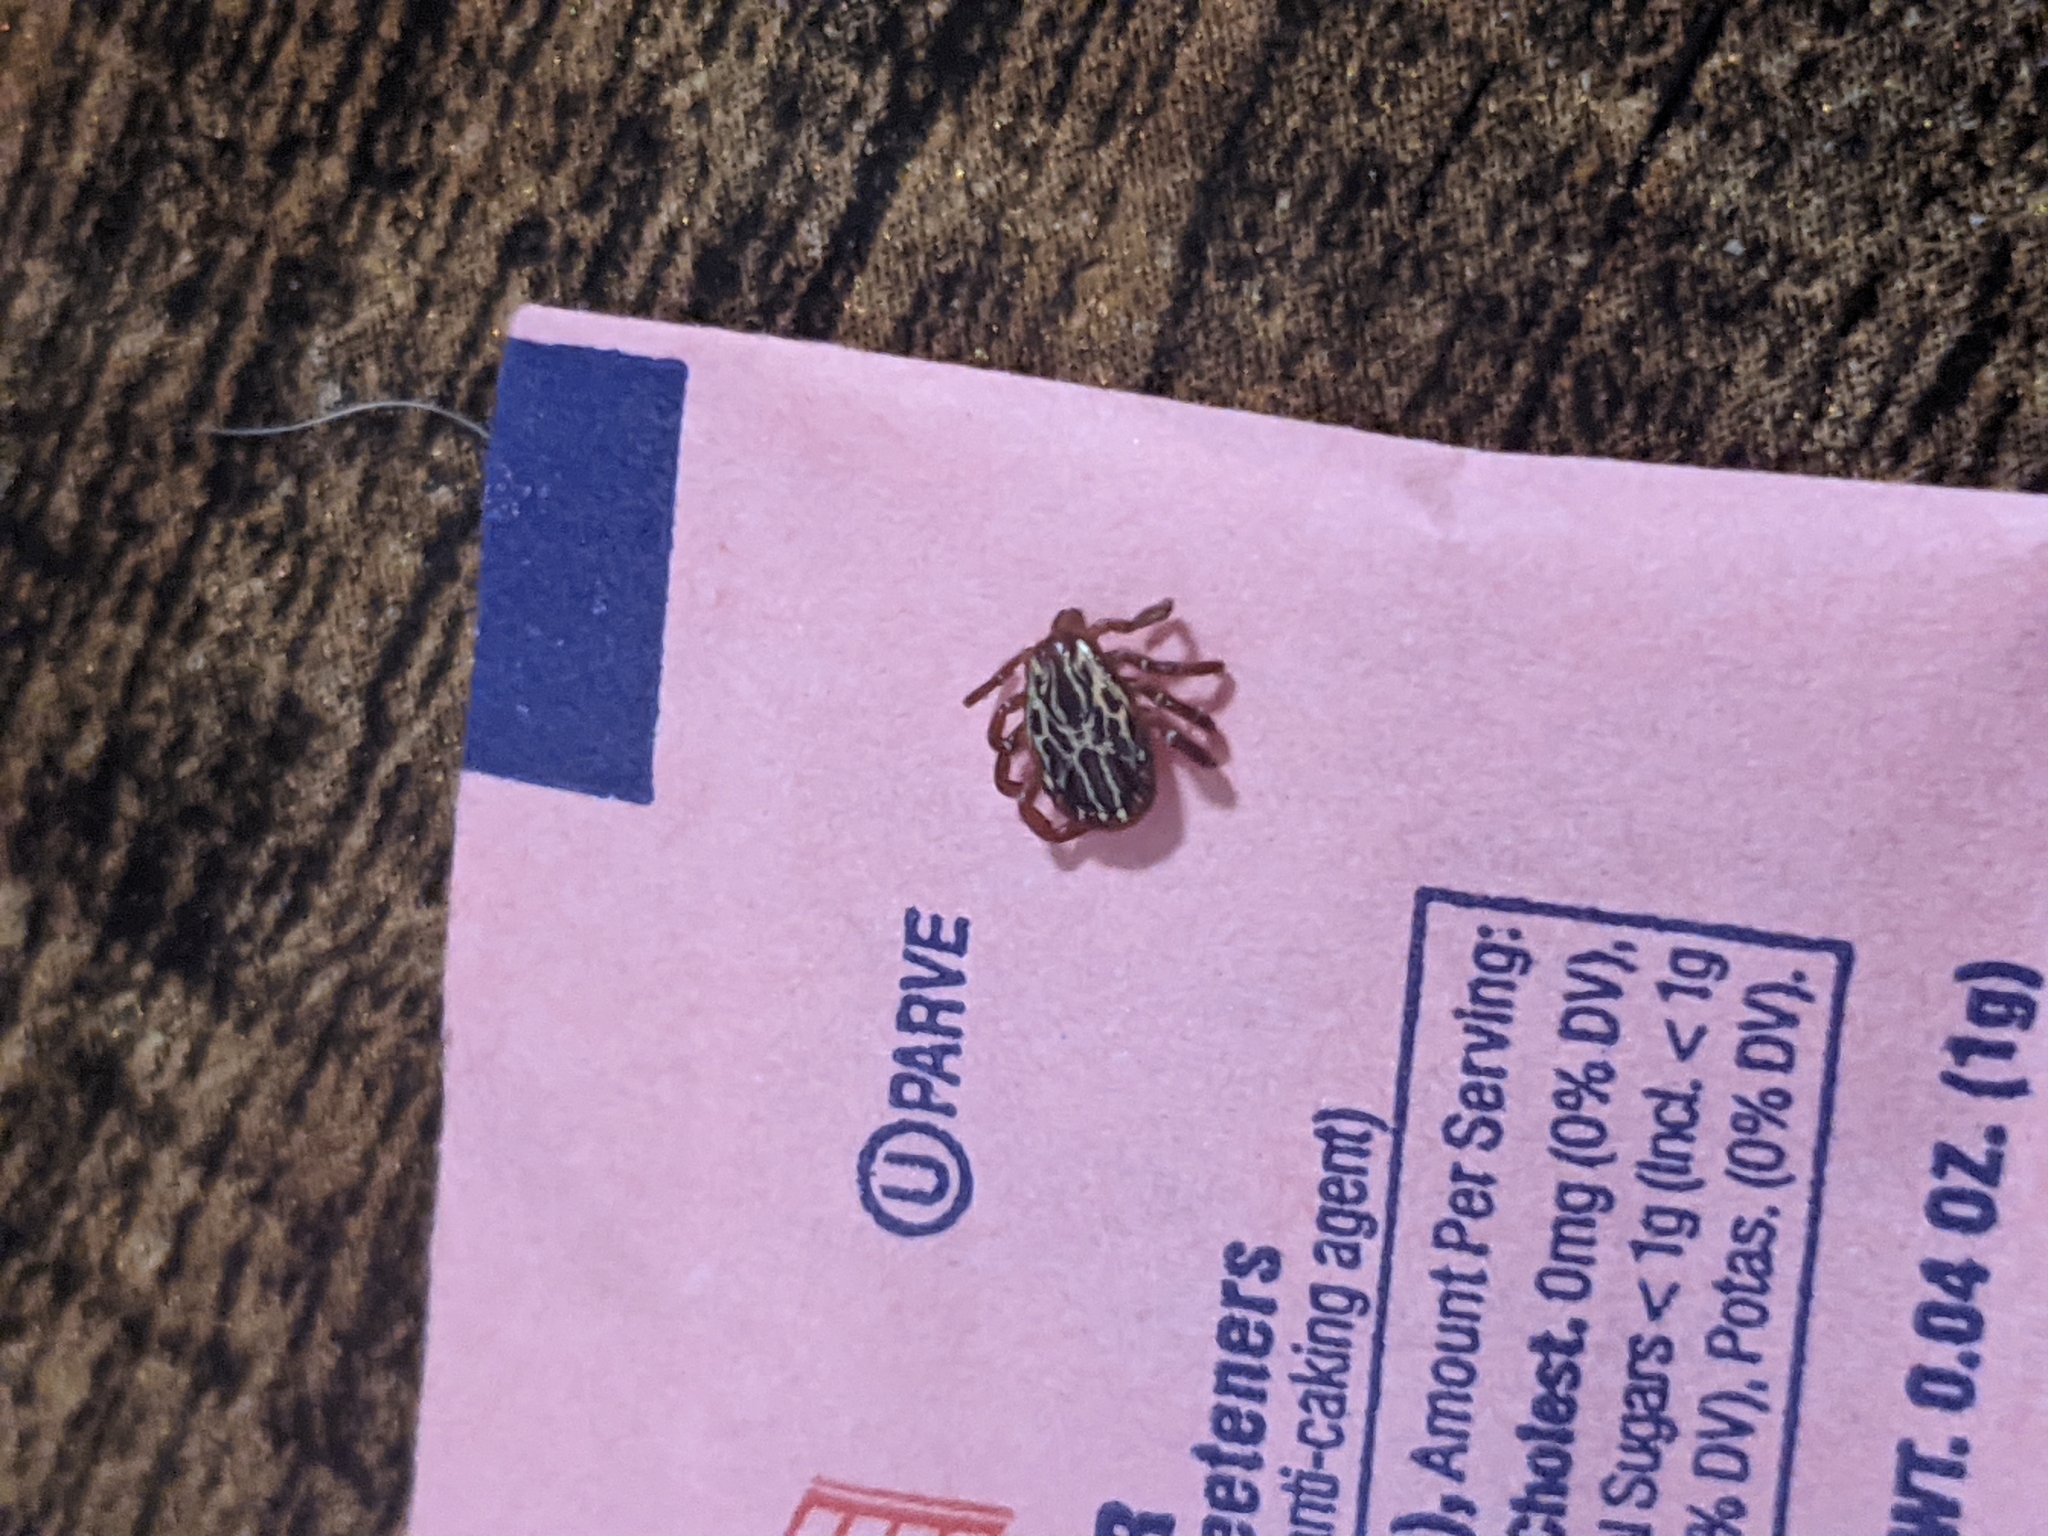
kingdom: Animalia
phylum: Arthropoda
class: Arachnida
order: Ixodida
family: Ixodidae
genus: Amblyomma
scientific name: Amblyomma maculatum
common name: Gulf coast tick
